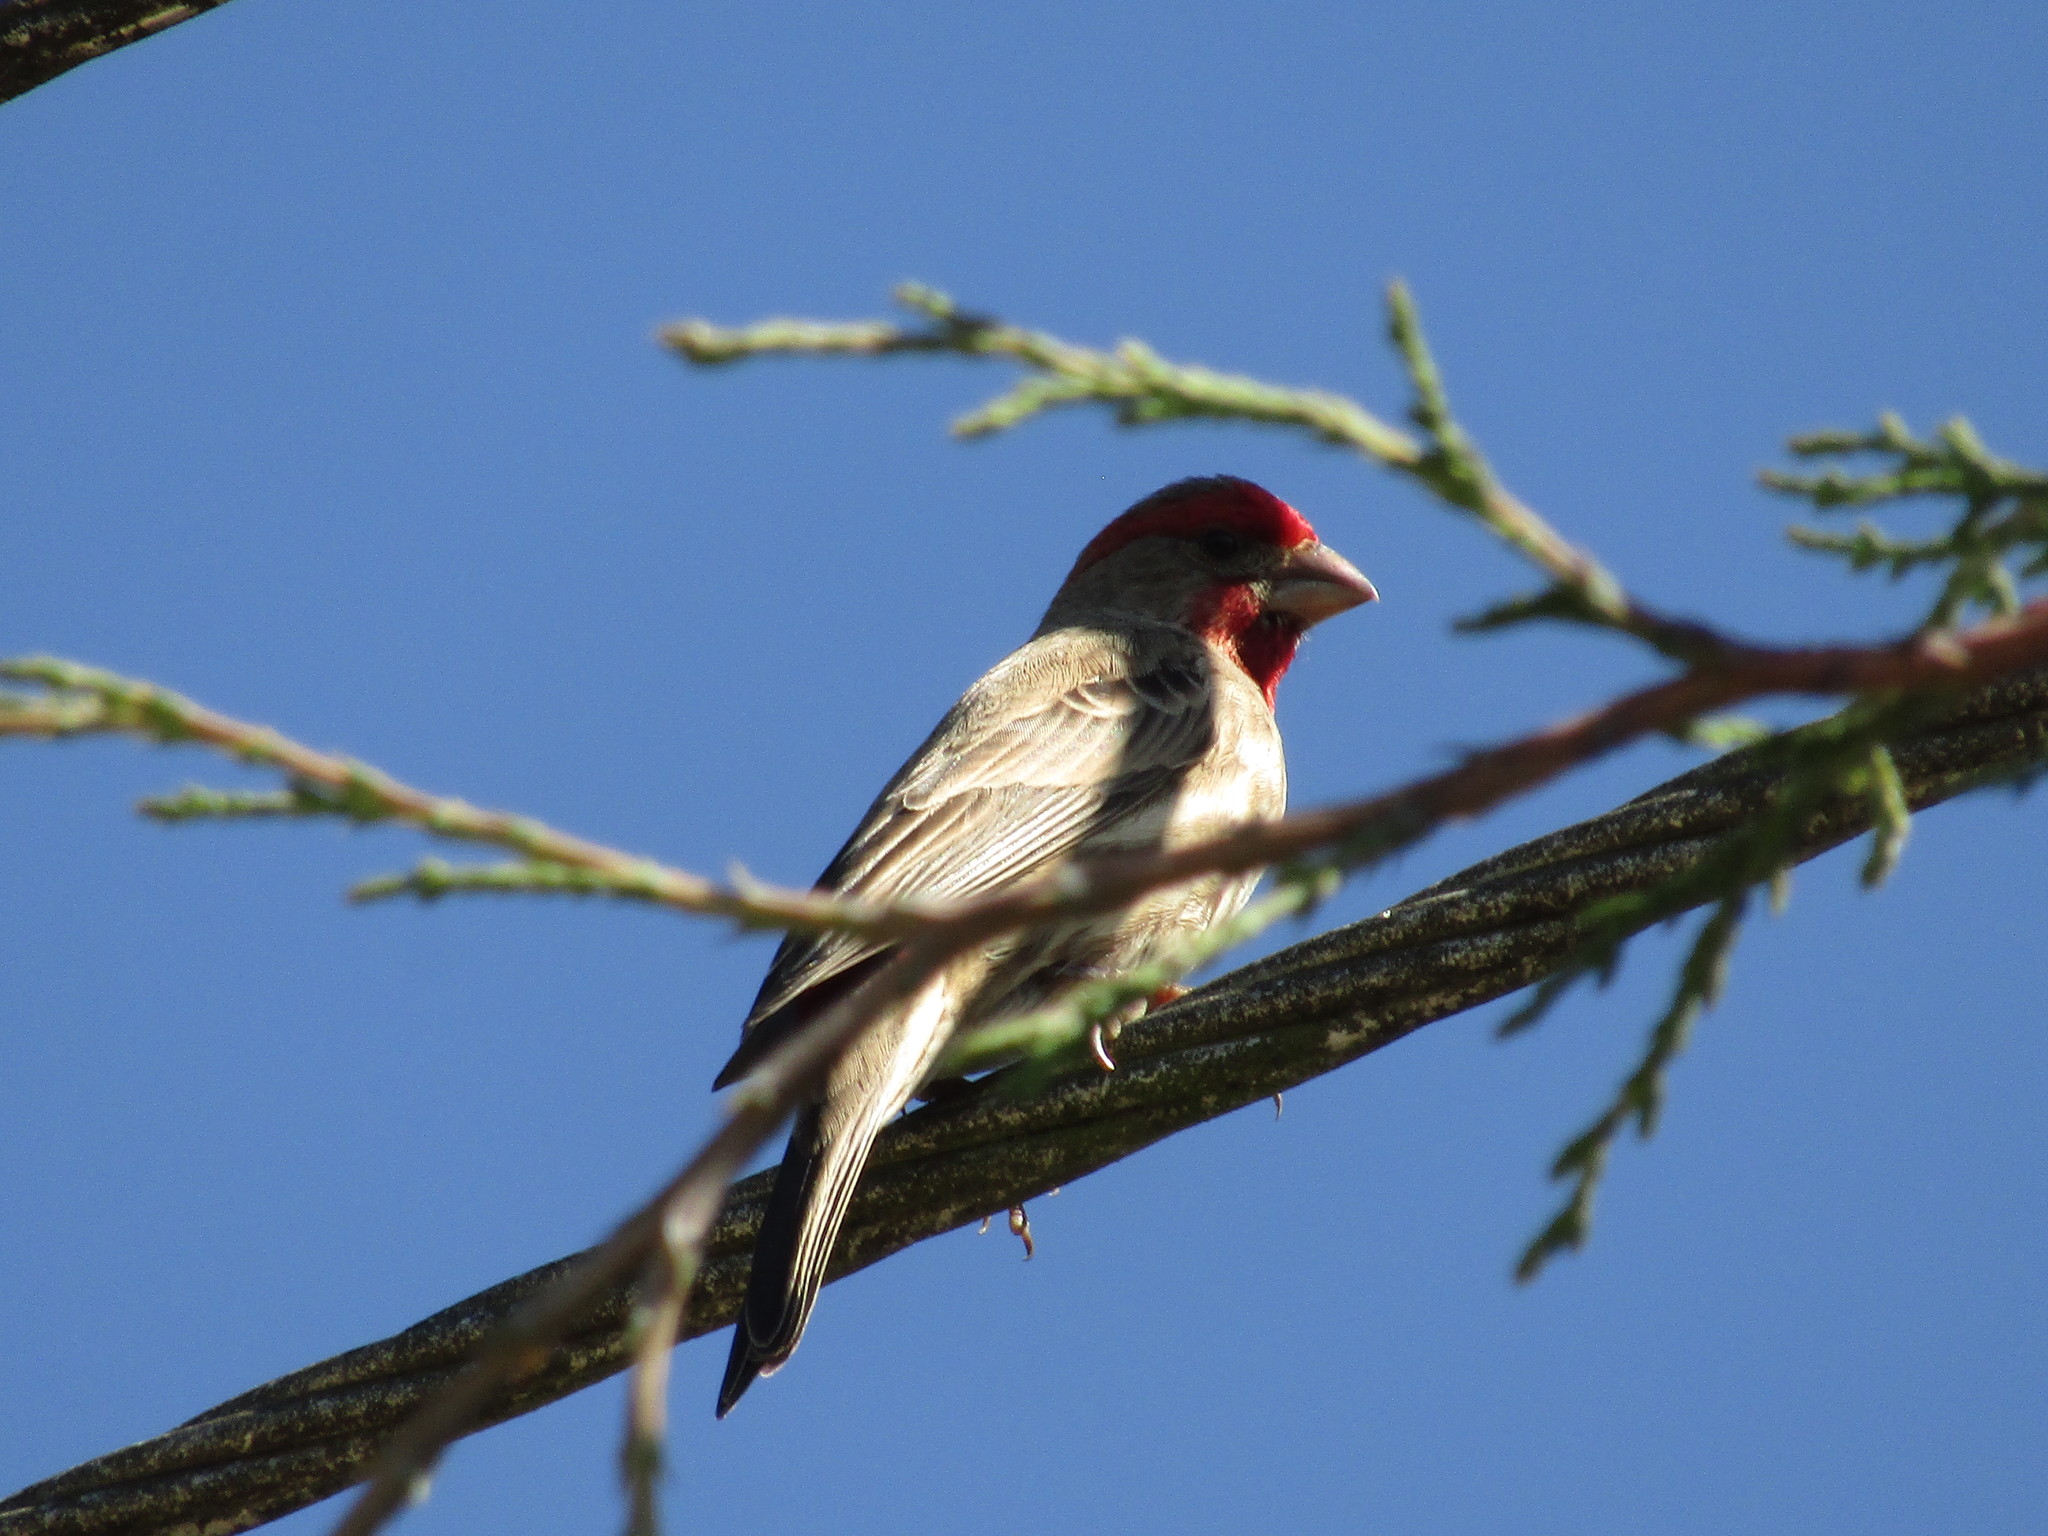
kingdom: Animalia
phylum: Chordata
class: Aves
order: Passeriformes
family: Fringillidae
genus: Haemorhous
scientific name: Haemorhous mexicanus
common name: House finch
